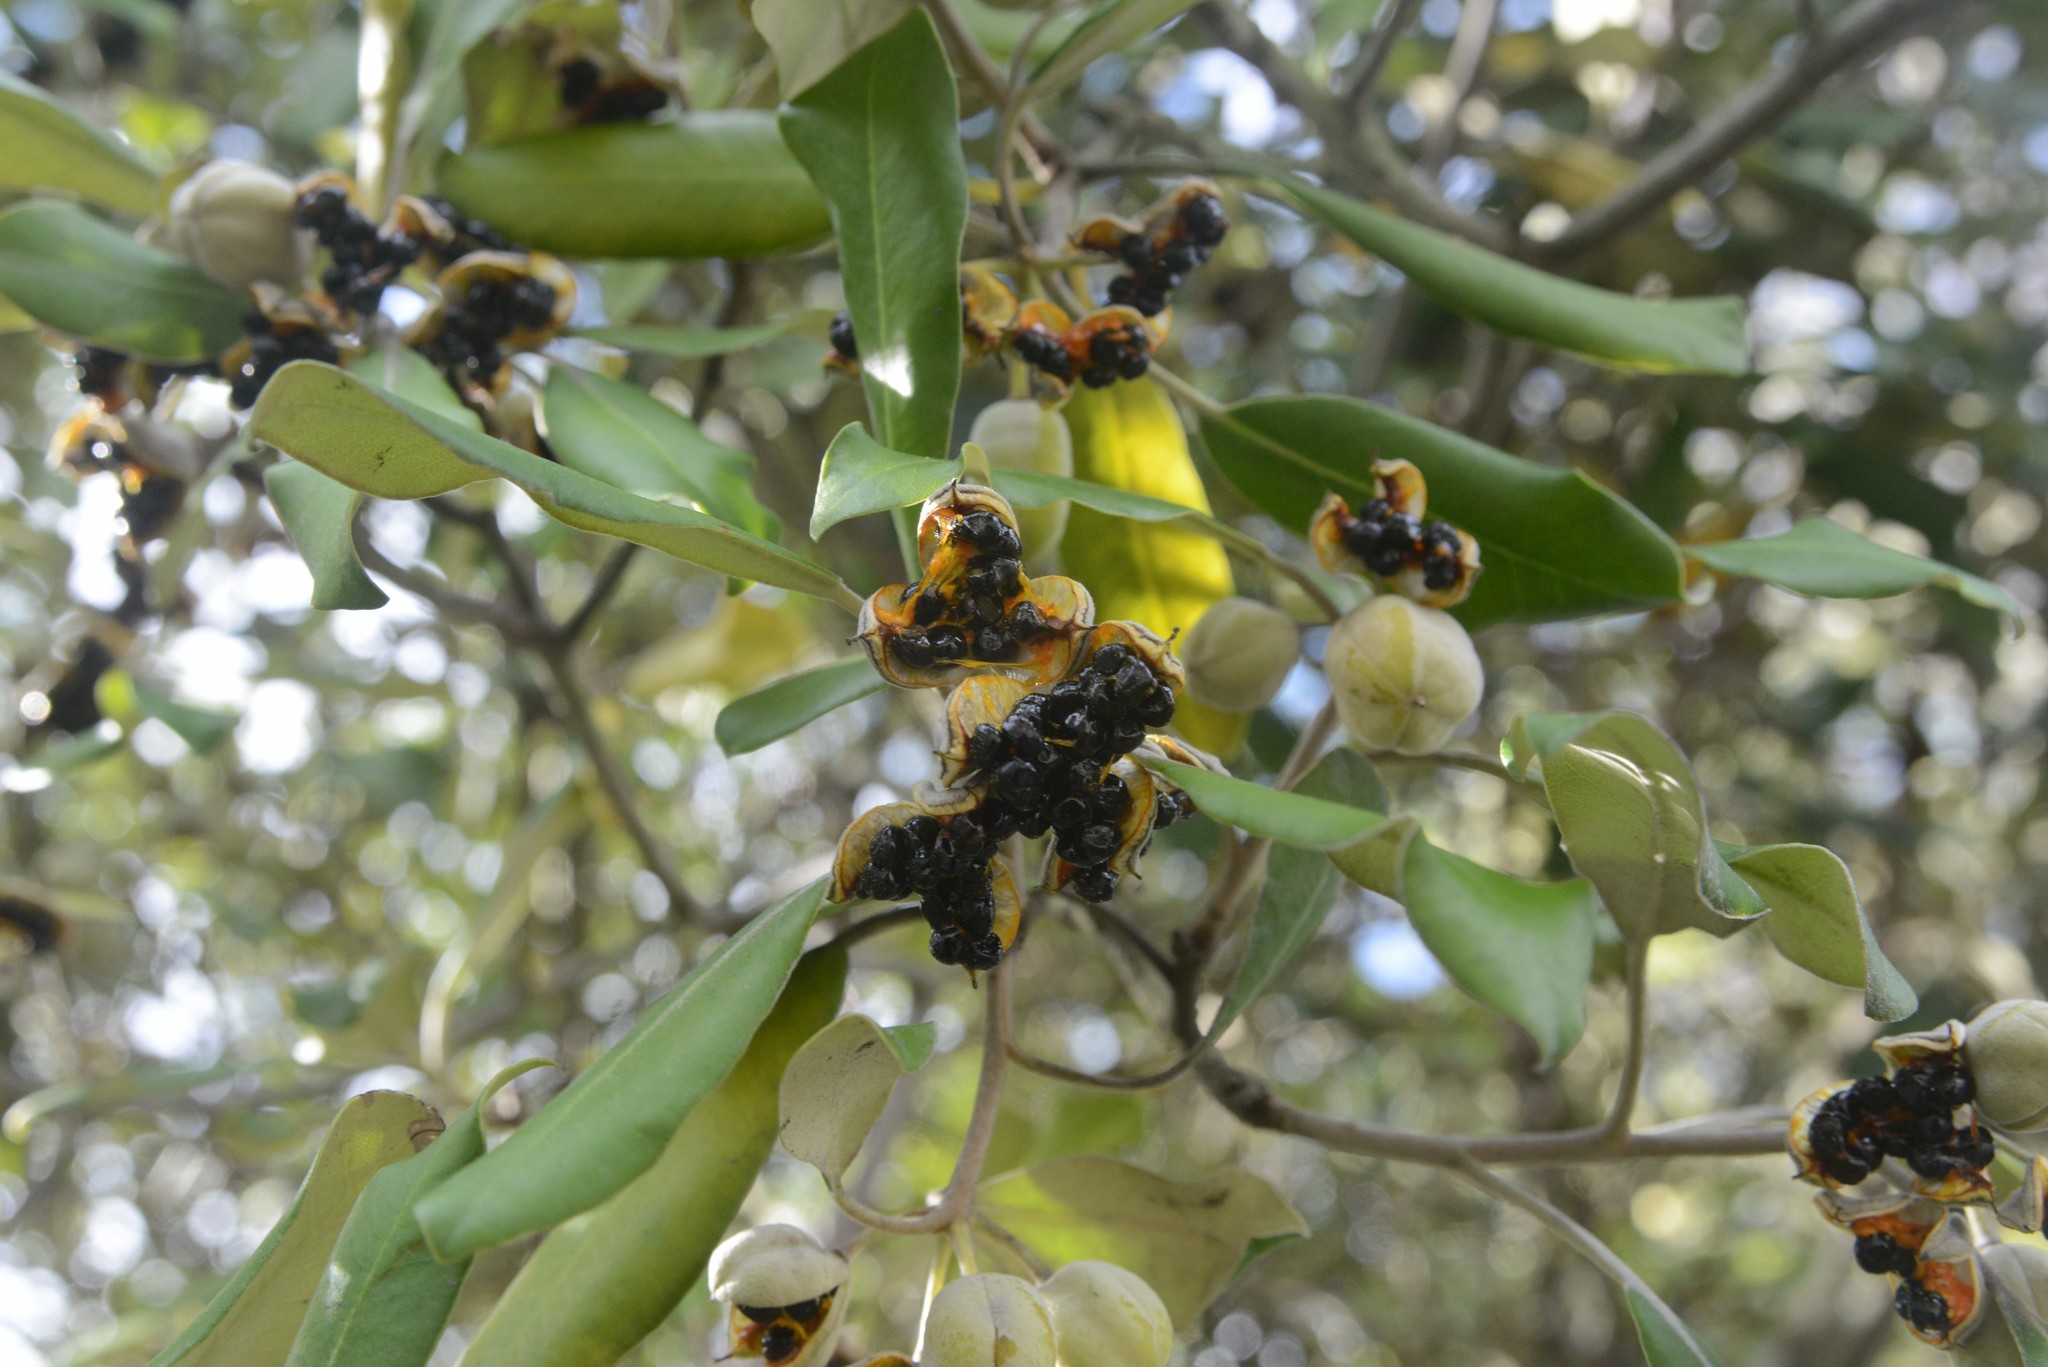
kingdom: Plantae
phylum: Tracheophyta
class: Magnoliopsida
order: Apiales
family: Pittosporaceae
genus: Pittosporum
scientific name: Pittosporum ralphii
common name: Ralph's desertwillow
